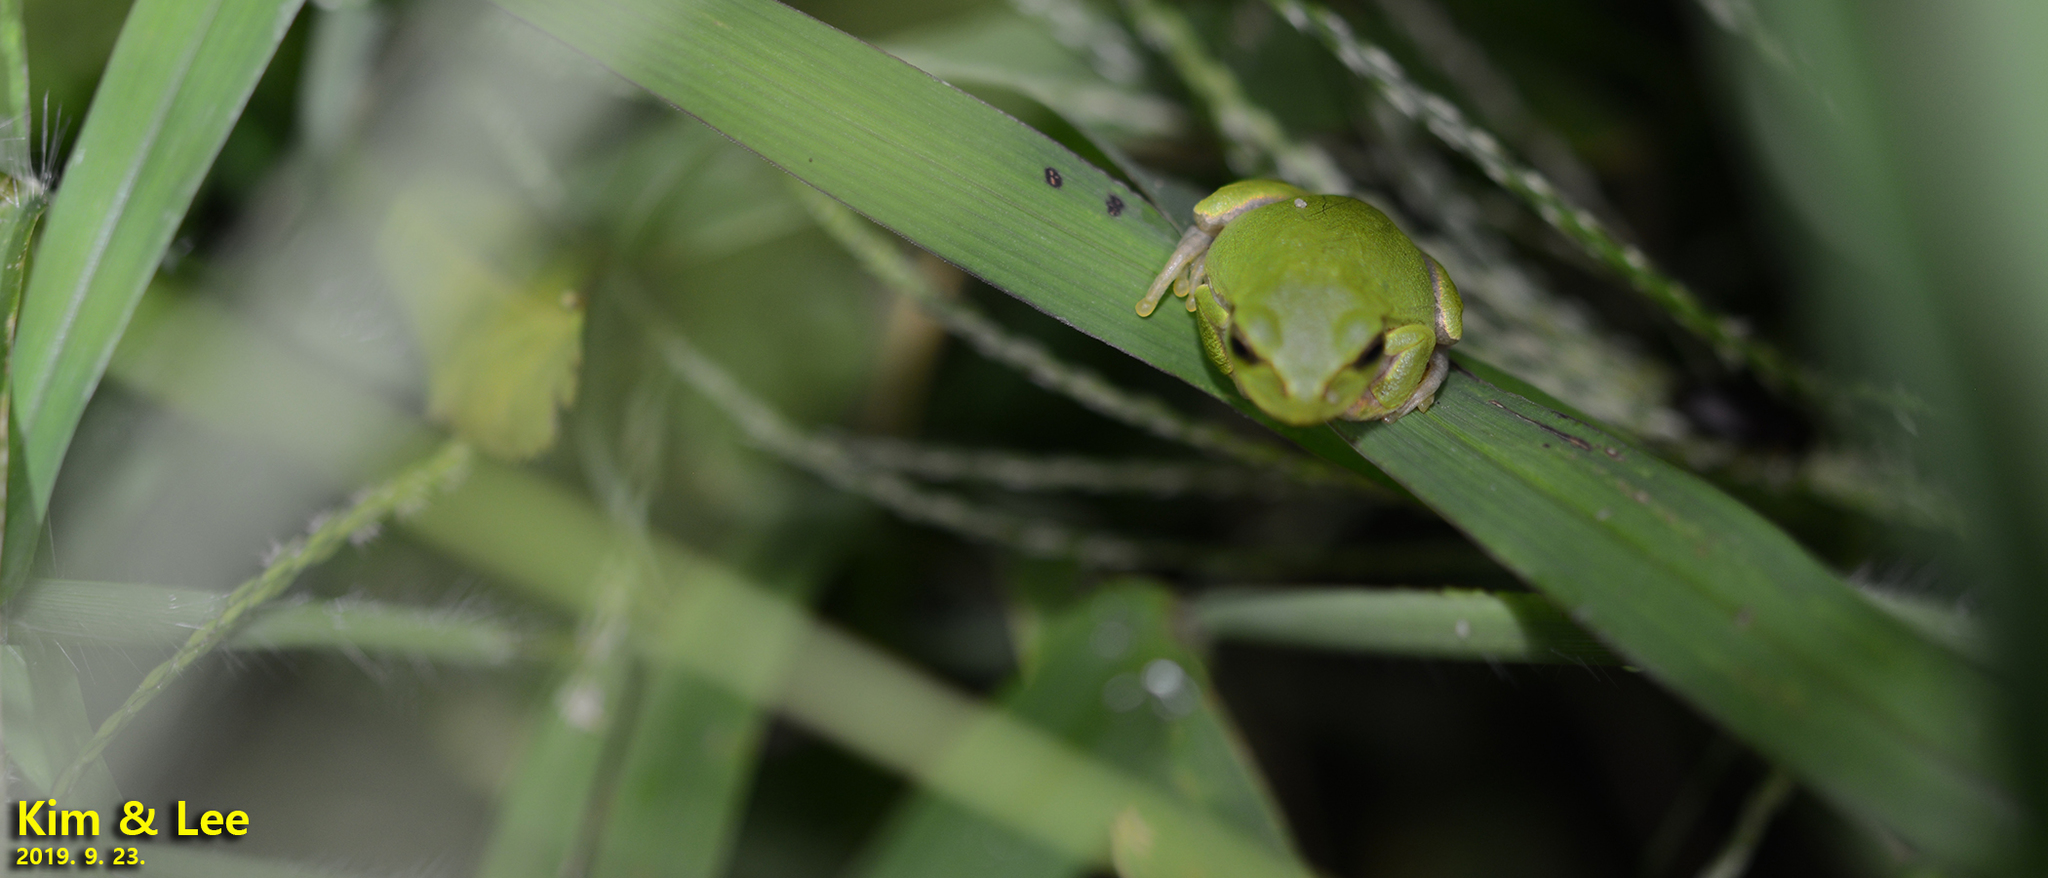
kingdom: Animalia
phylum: Chordata
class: Amphibia
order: Anura
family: Hylidae
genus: Dryophytes
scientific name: Dryophytes japonicus
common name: Japanese treefrog
